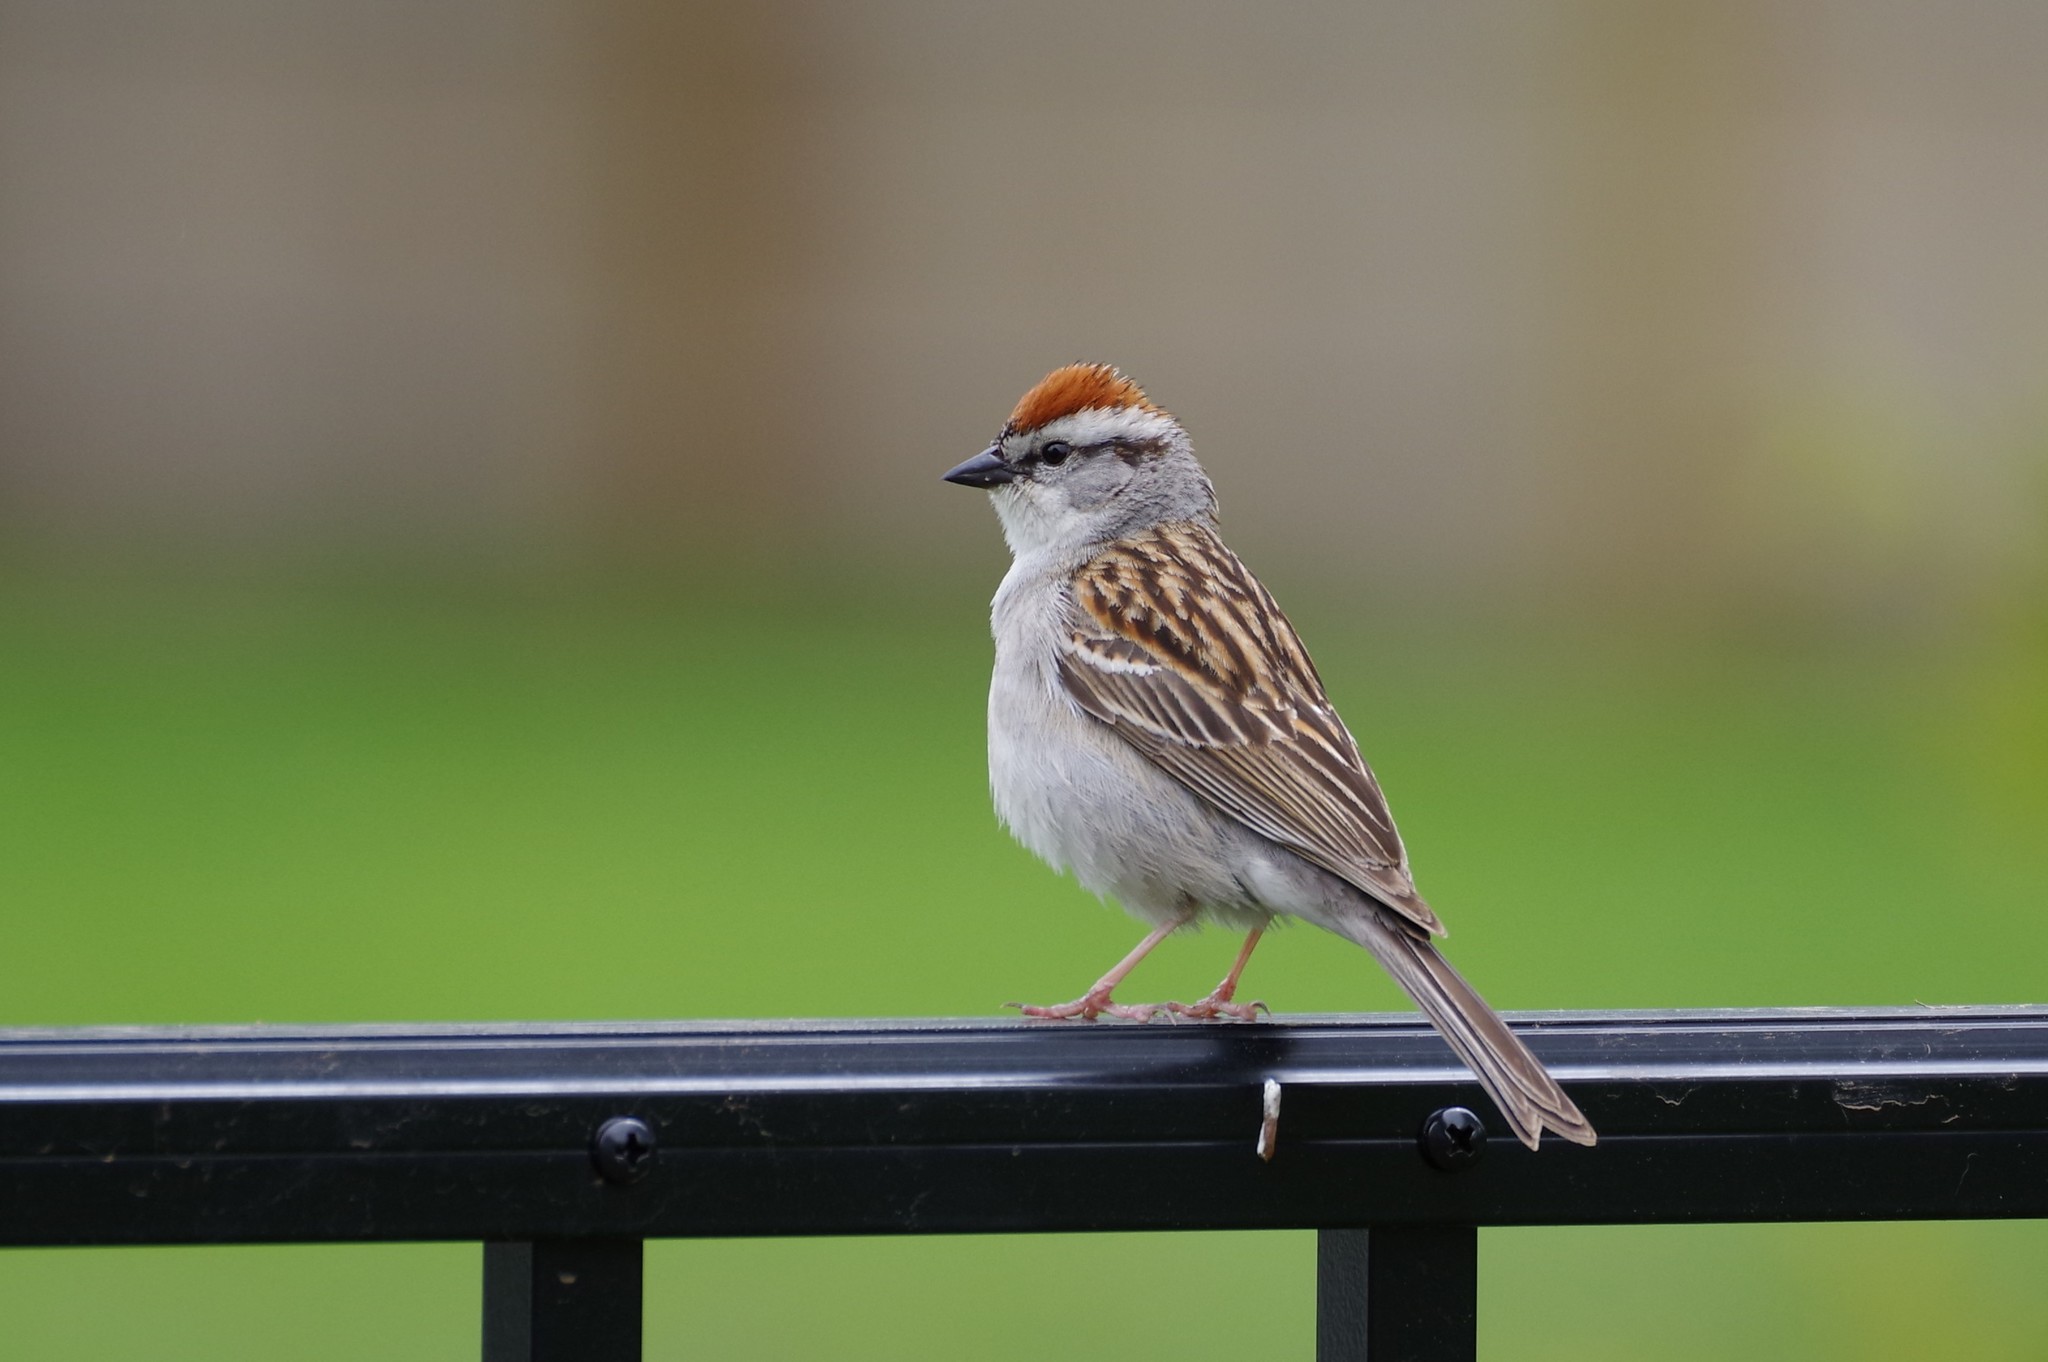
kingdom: Animalia
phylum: Chordata
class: Aves
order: Passeriformes
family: Passerellidae
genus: Spizella
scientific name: Spizella passerina
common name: Chipping sparrow
